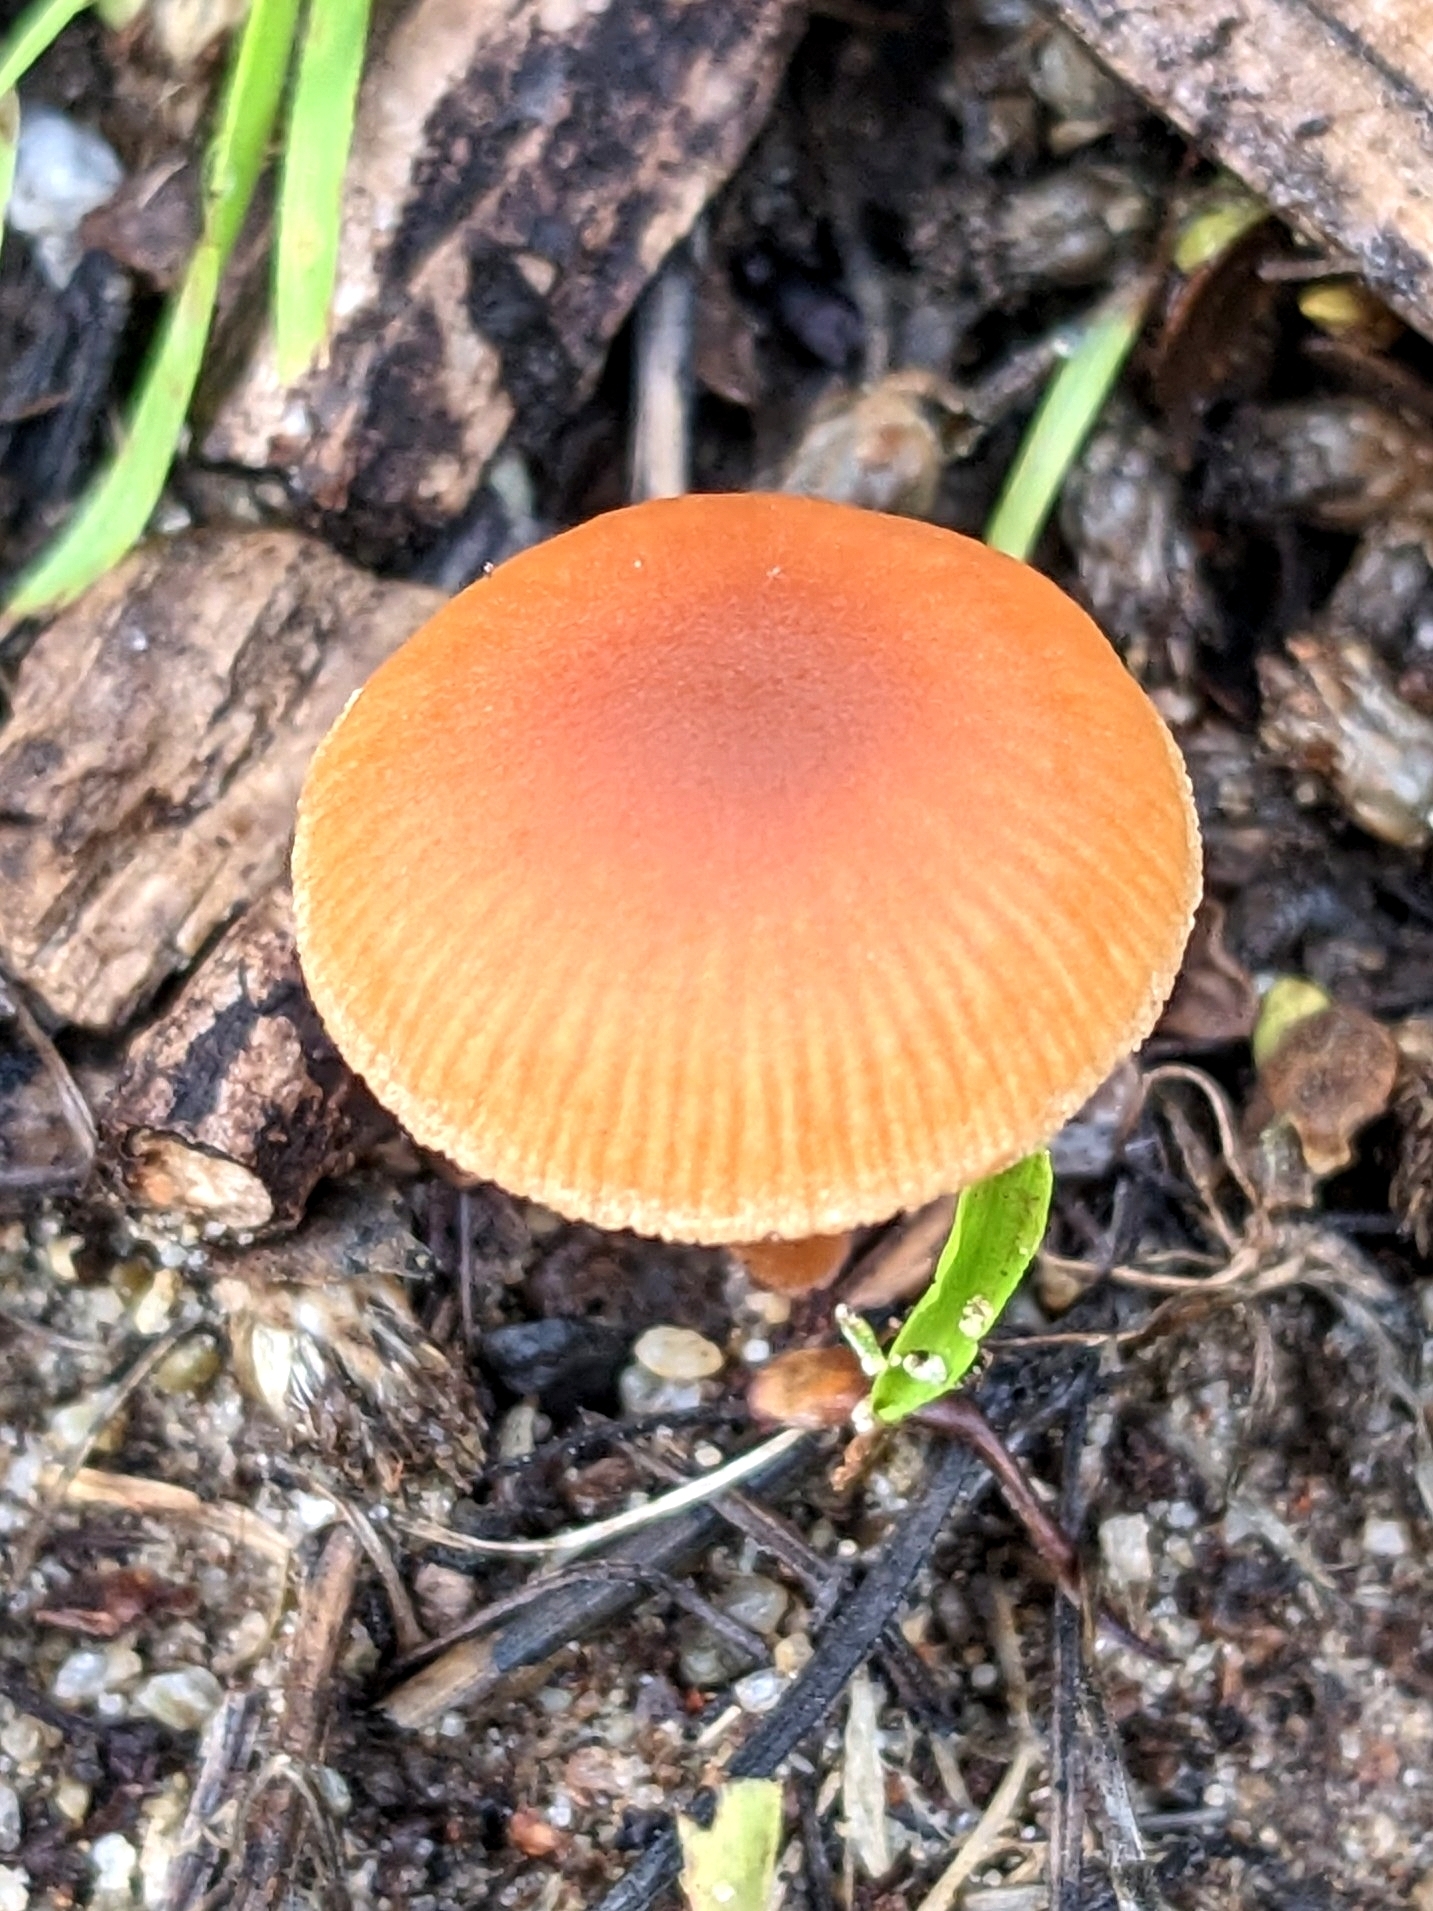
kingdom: Fungi
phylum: Basidiomycota
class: Agaricomycetes
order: Agaricales
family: Tubariaceae
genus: Tubaria
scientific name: Tubaria furfuracea
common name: Scurfy twiglet
